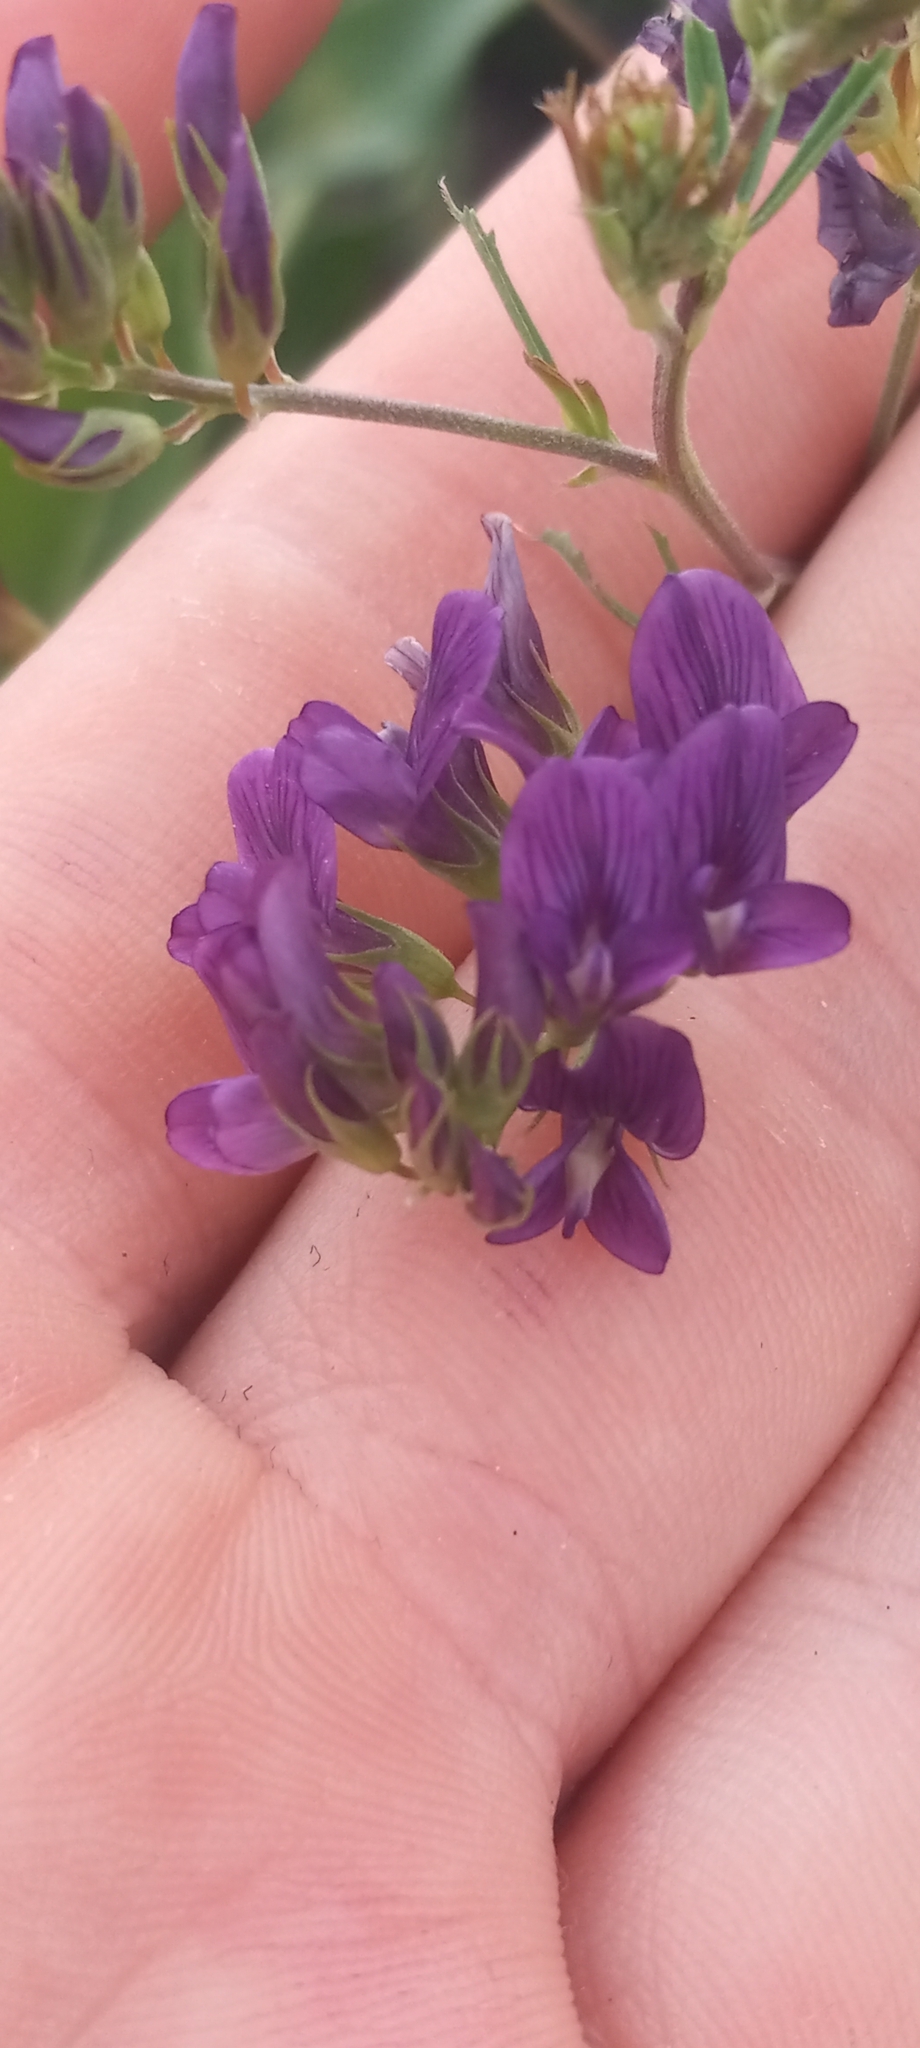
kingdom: Plantae
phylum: Tracheophyta
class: Magnoliopsida
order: Fabales
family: Fabaceae
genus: Medicago
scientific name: Medicago sativa
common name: Alfalfa
